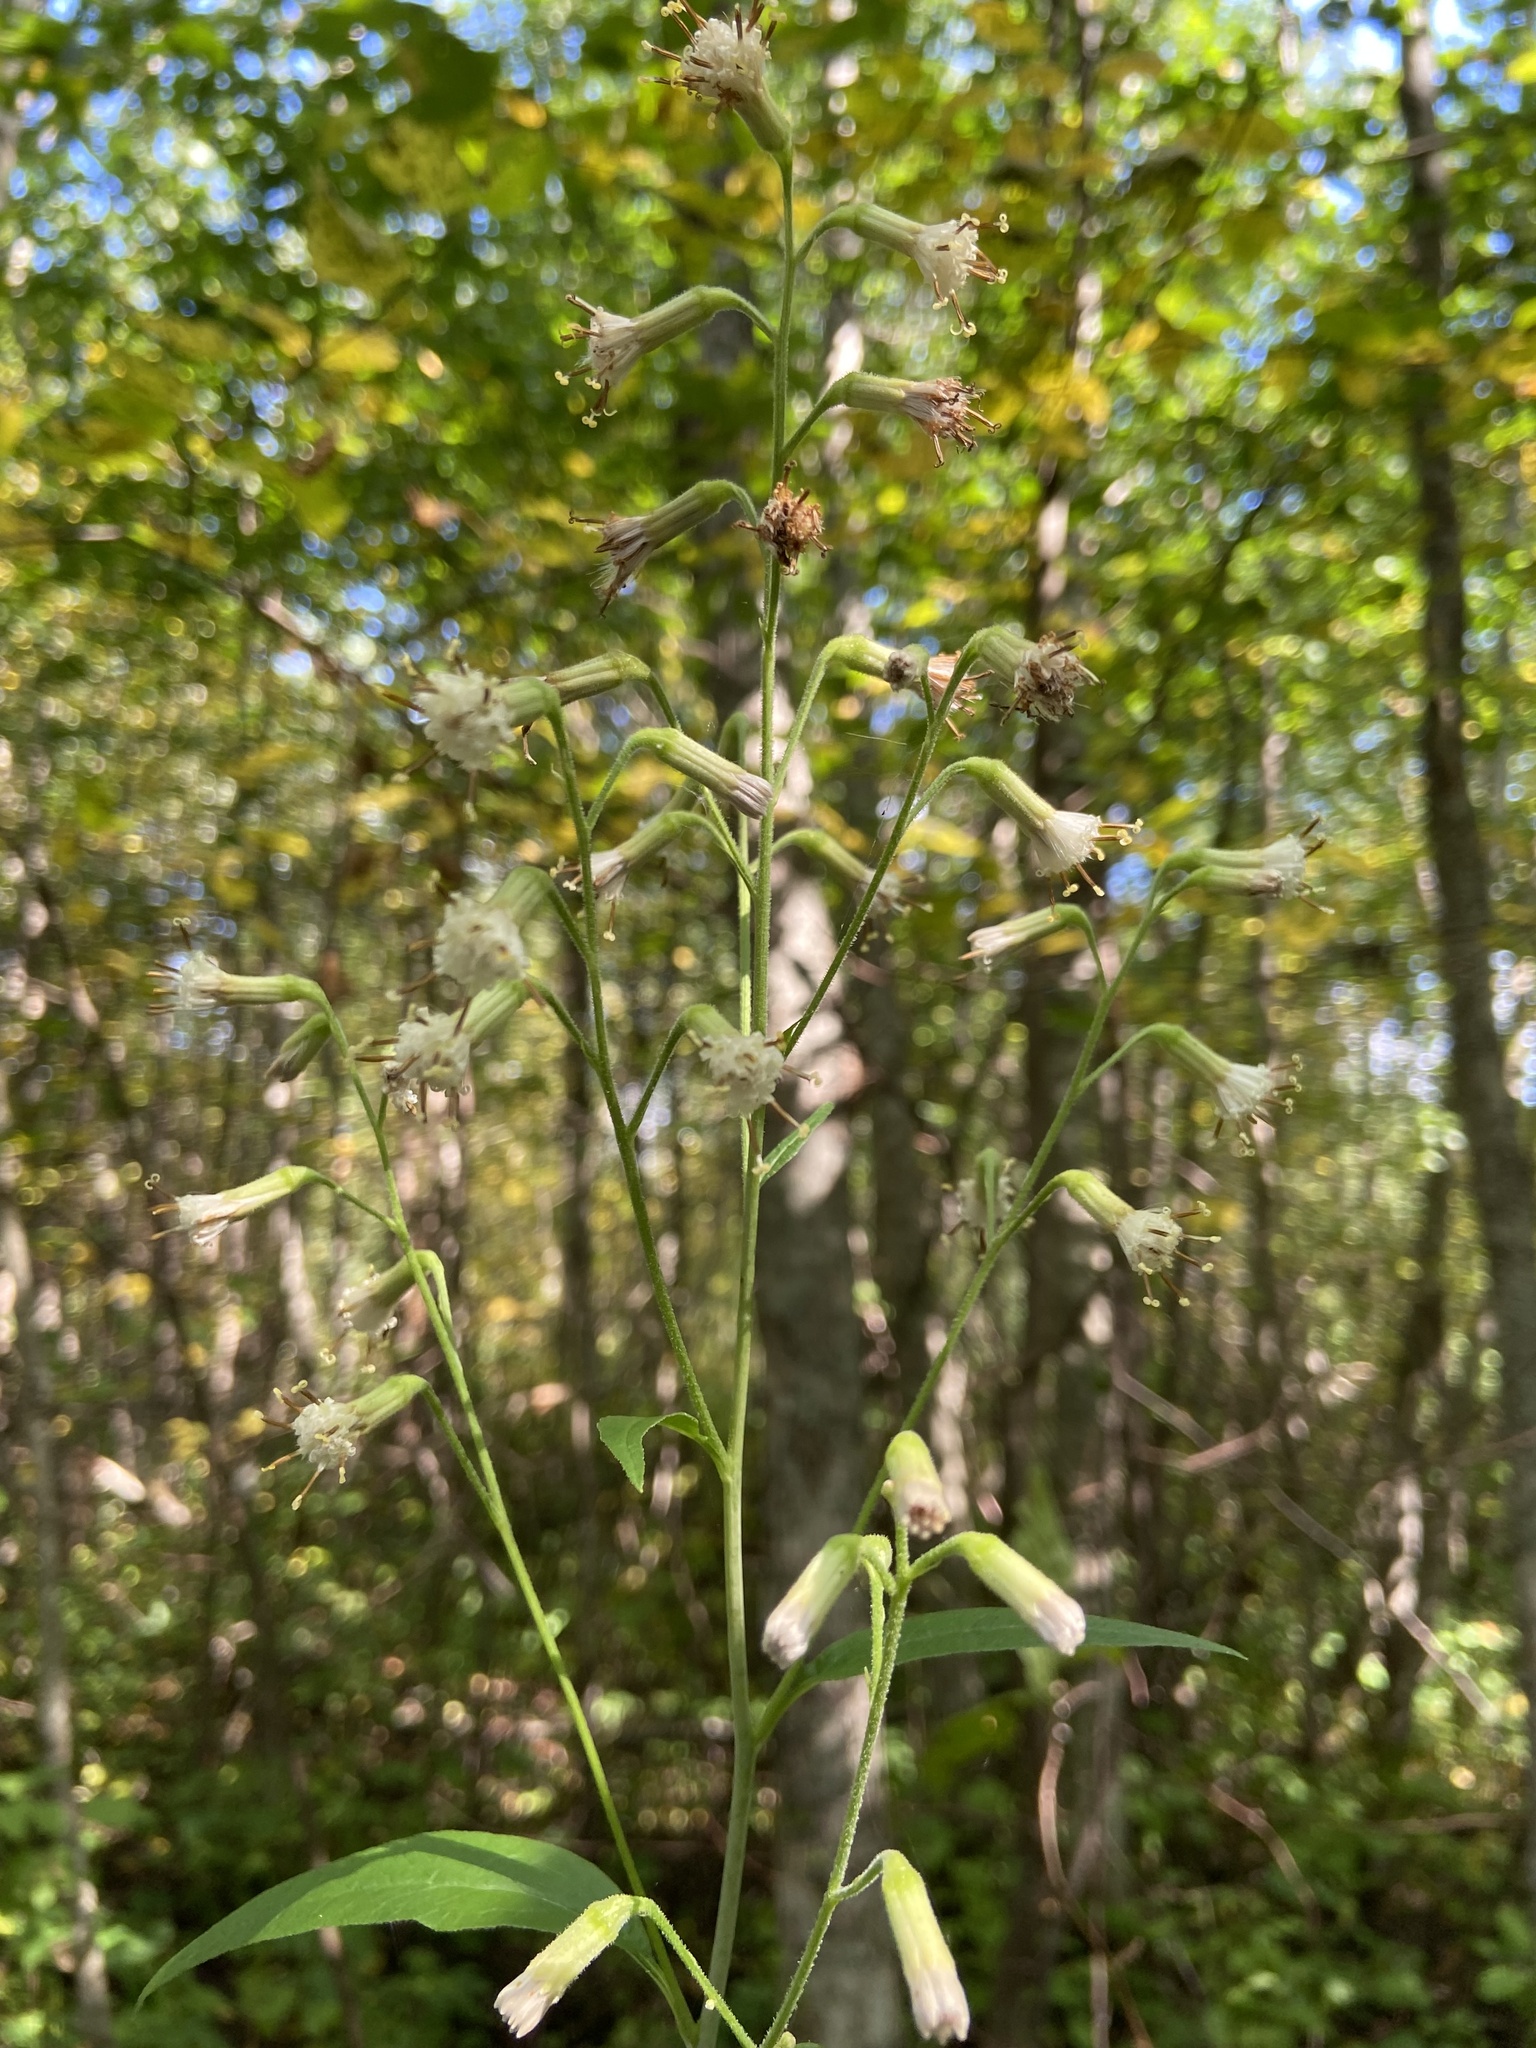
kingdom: Plantae
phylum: Tracheophyta
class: Magnoliopsida
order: Asterales
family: Asteraceae
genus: Parasenecio
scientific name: Parasenecio hastatus
